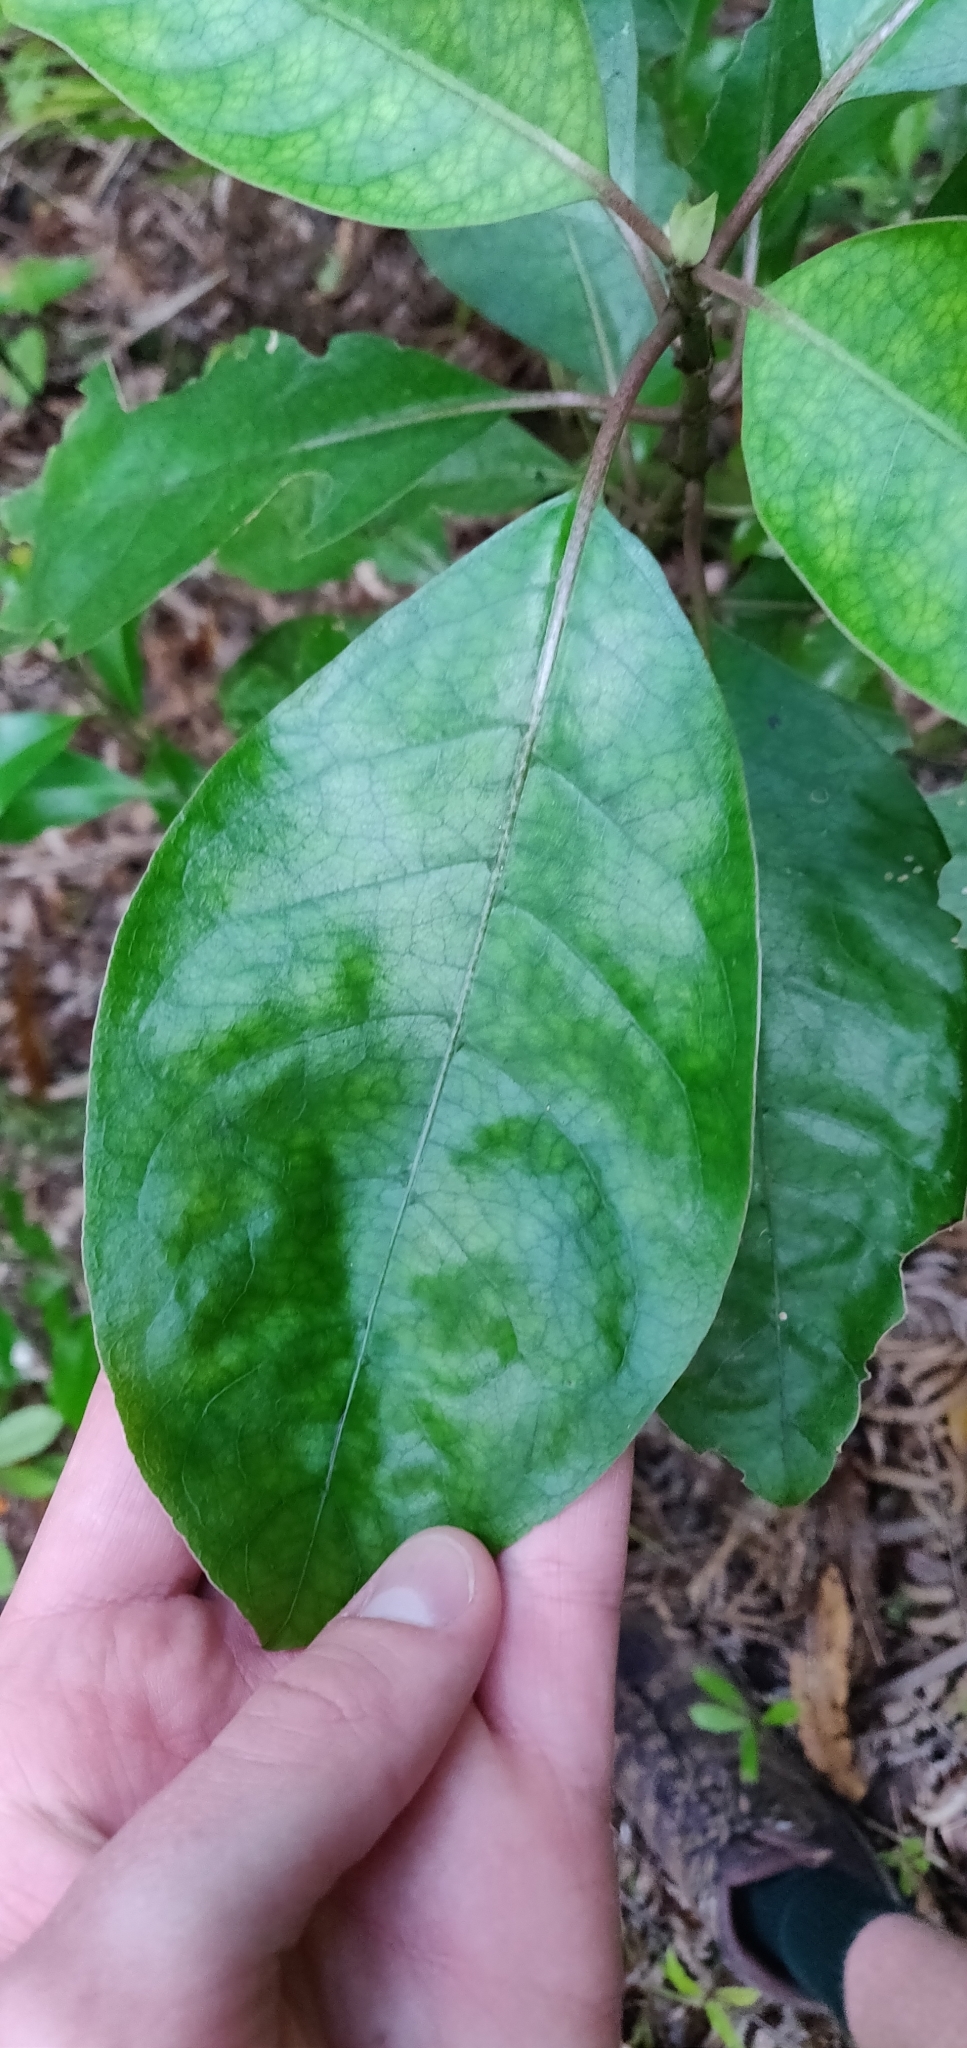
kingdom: Plantae
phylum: Tracheophyta
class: Magnoliopsida
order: Gentianales
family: Rubiaceae
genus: Coprosma
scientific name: Coprosma autumnalis
